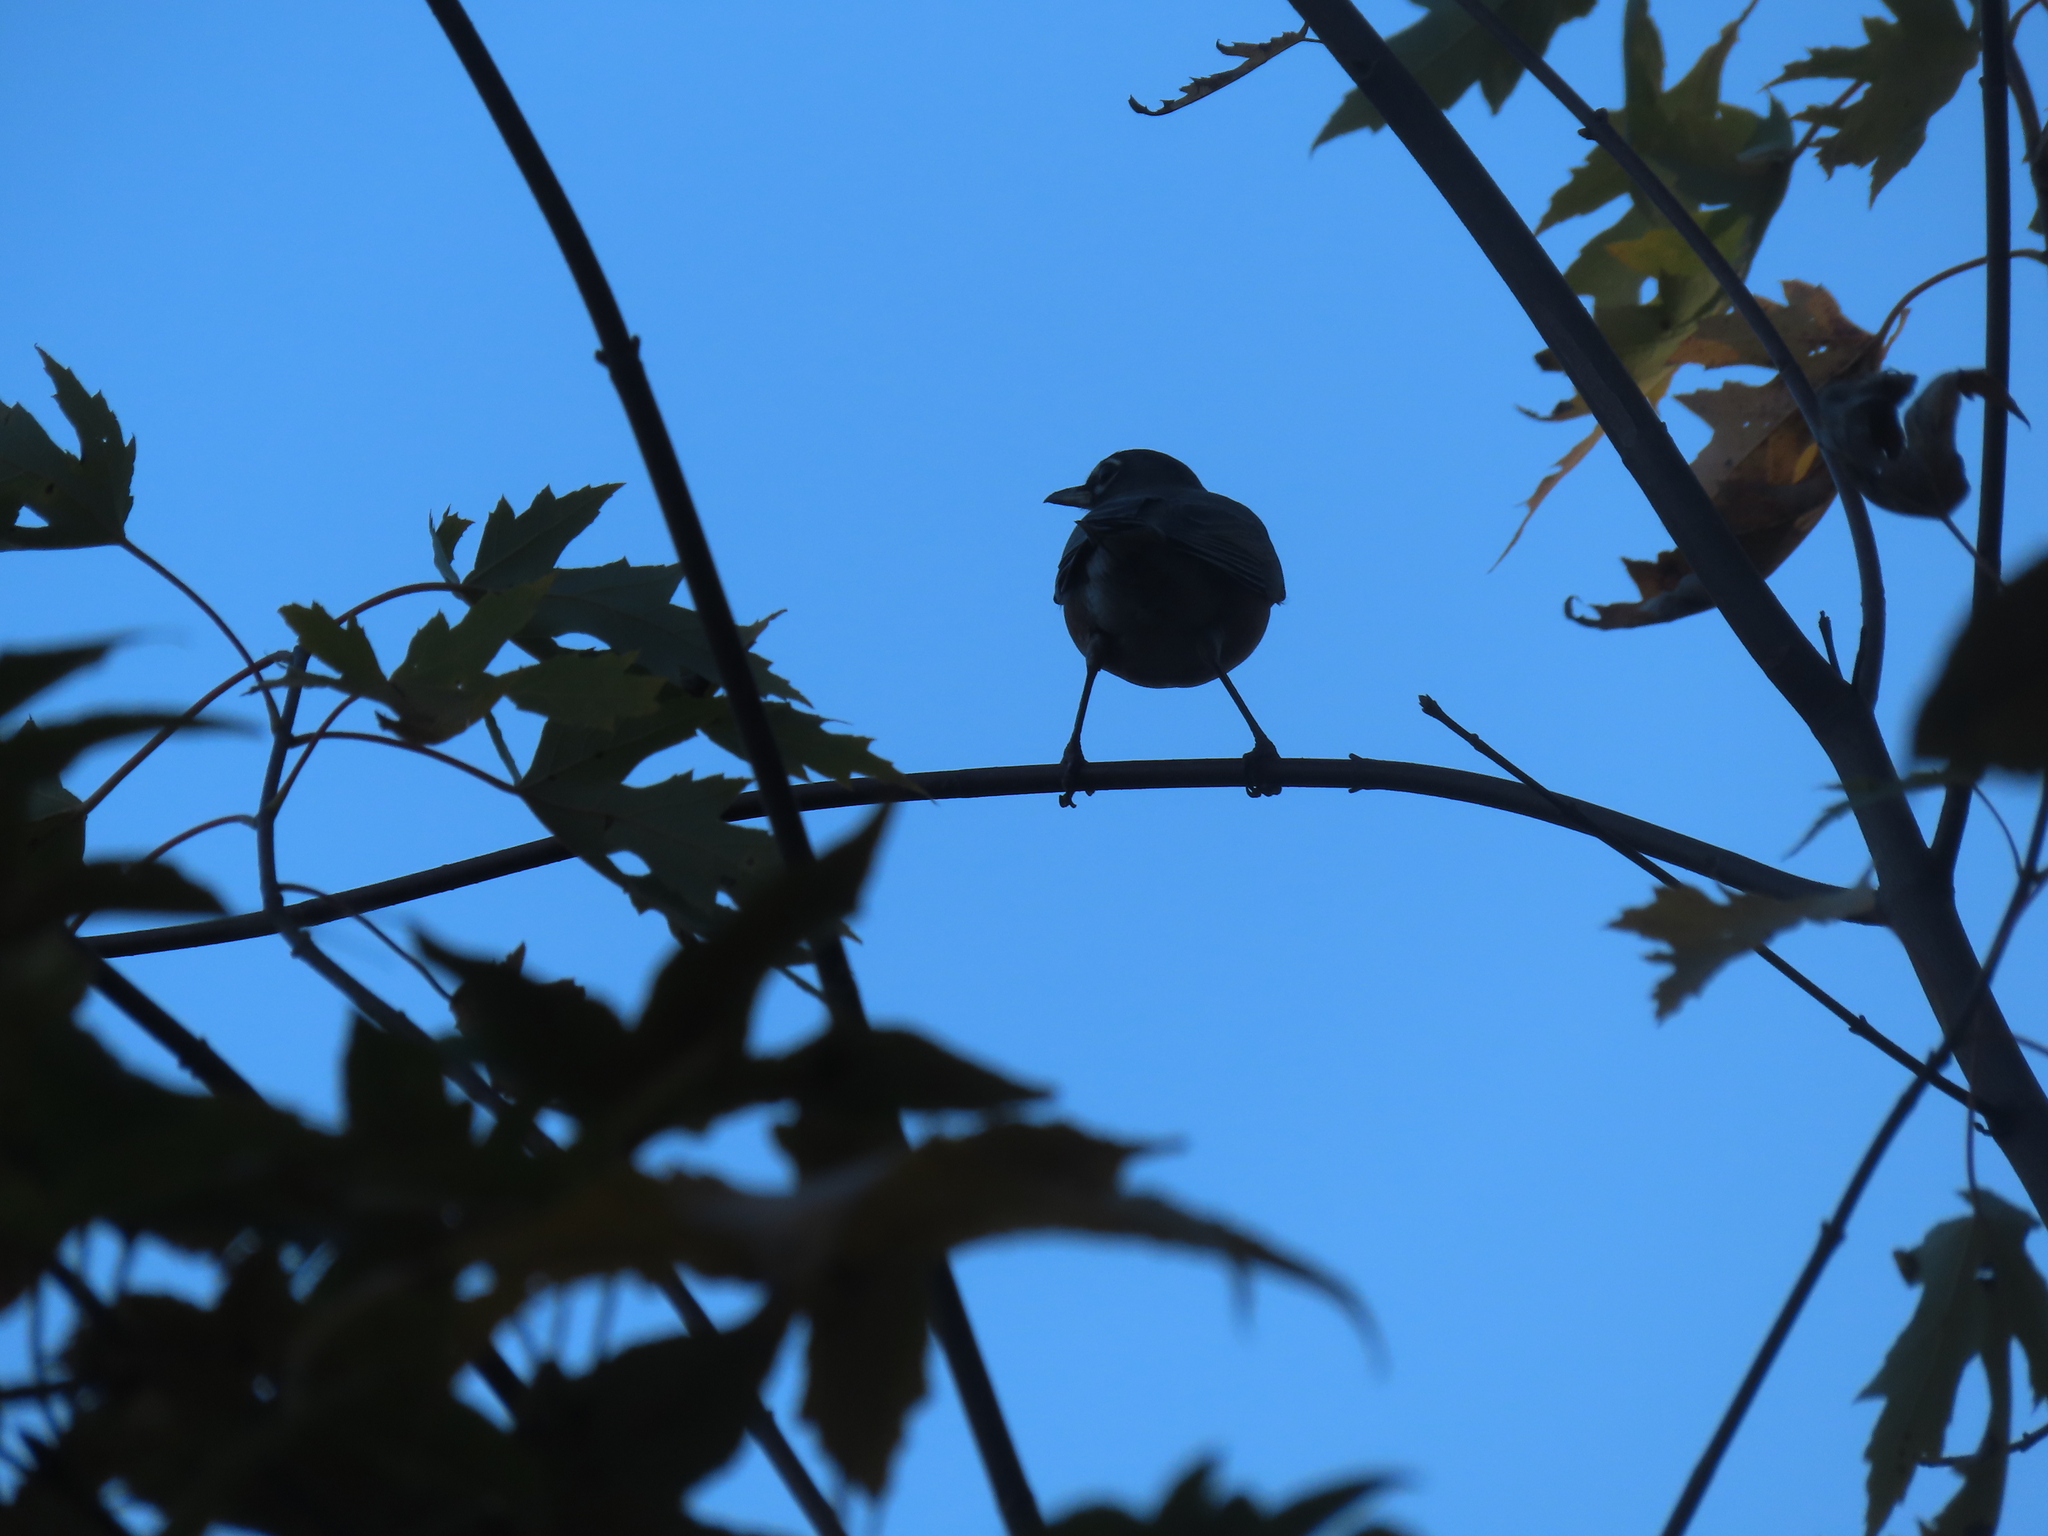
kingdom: Animalia
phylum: Chordata
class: Aves
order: Passeriformes
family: Turdidae
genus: Turdus
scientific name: Turdus migratorius
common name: American robin
